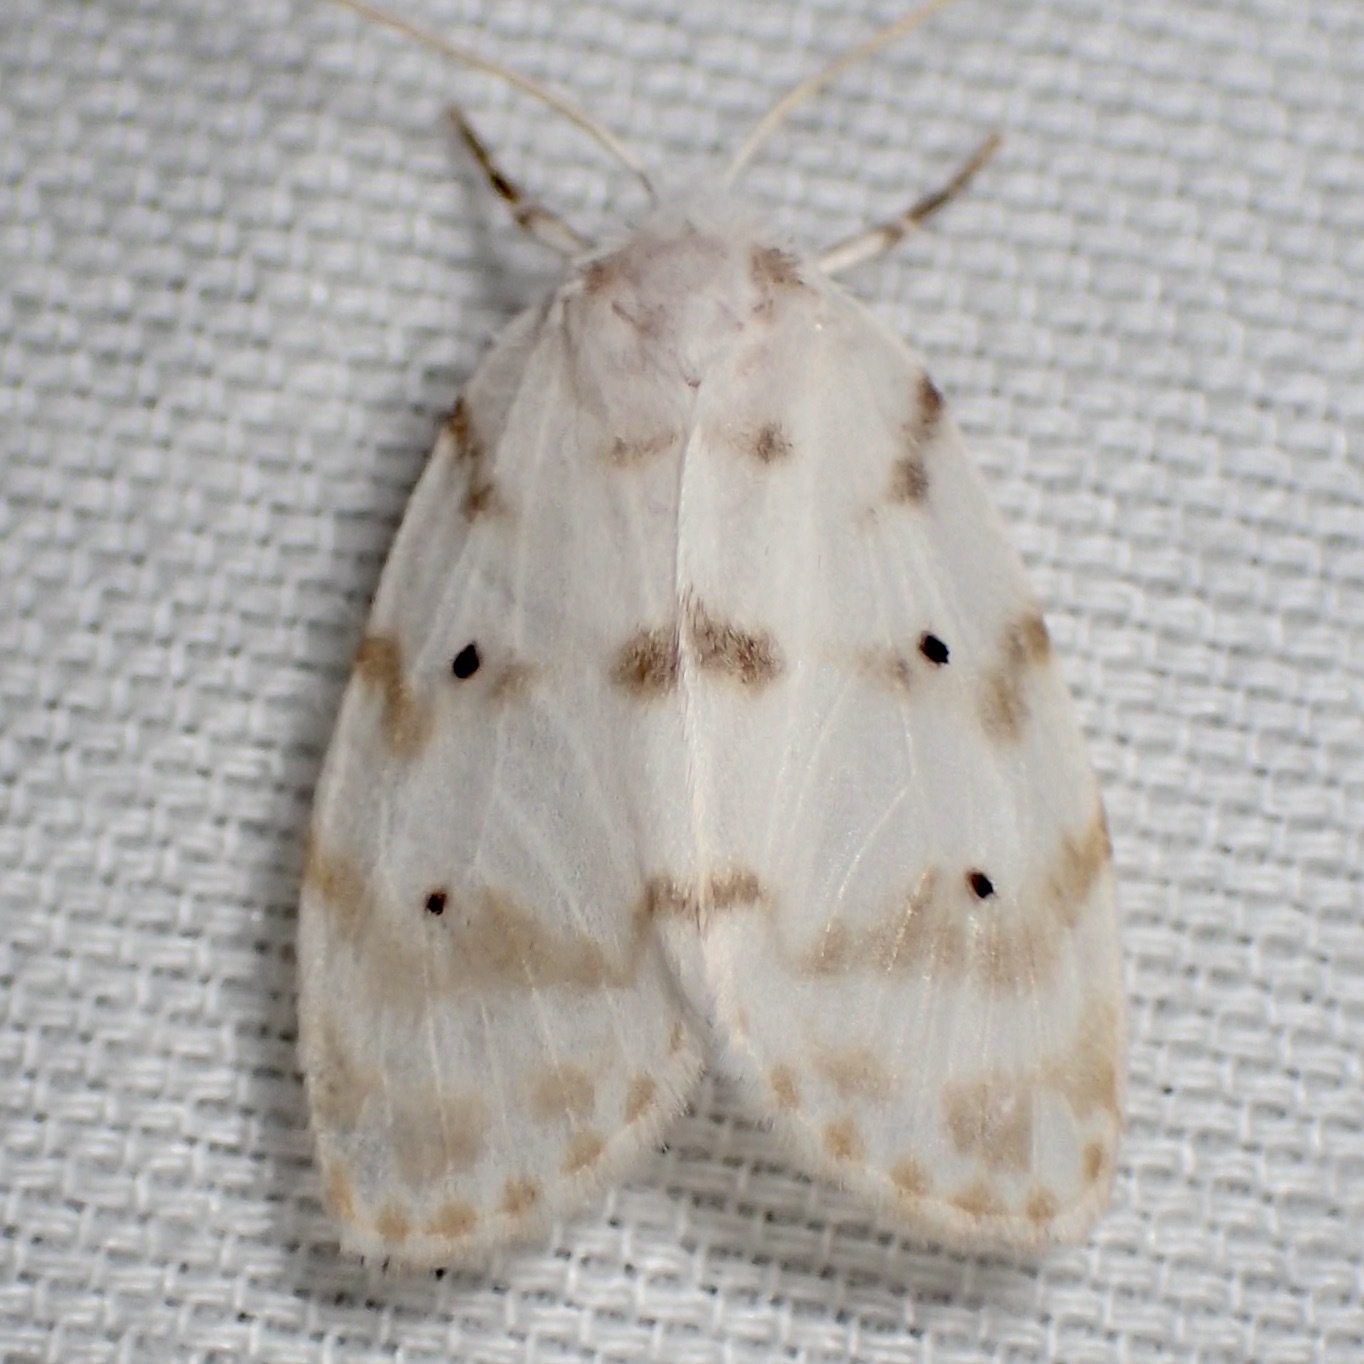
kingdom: Animalia
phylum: Arthropoda
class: Insecta
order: Lepidoptera
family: Erebidae
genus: Schistophleps
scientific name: Schistophleps albida
